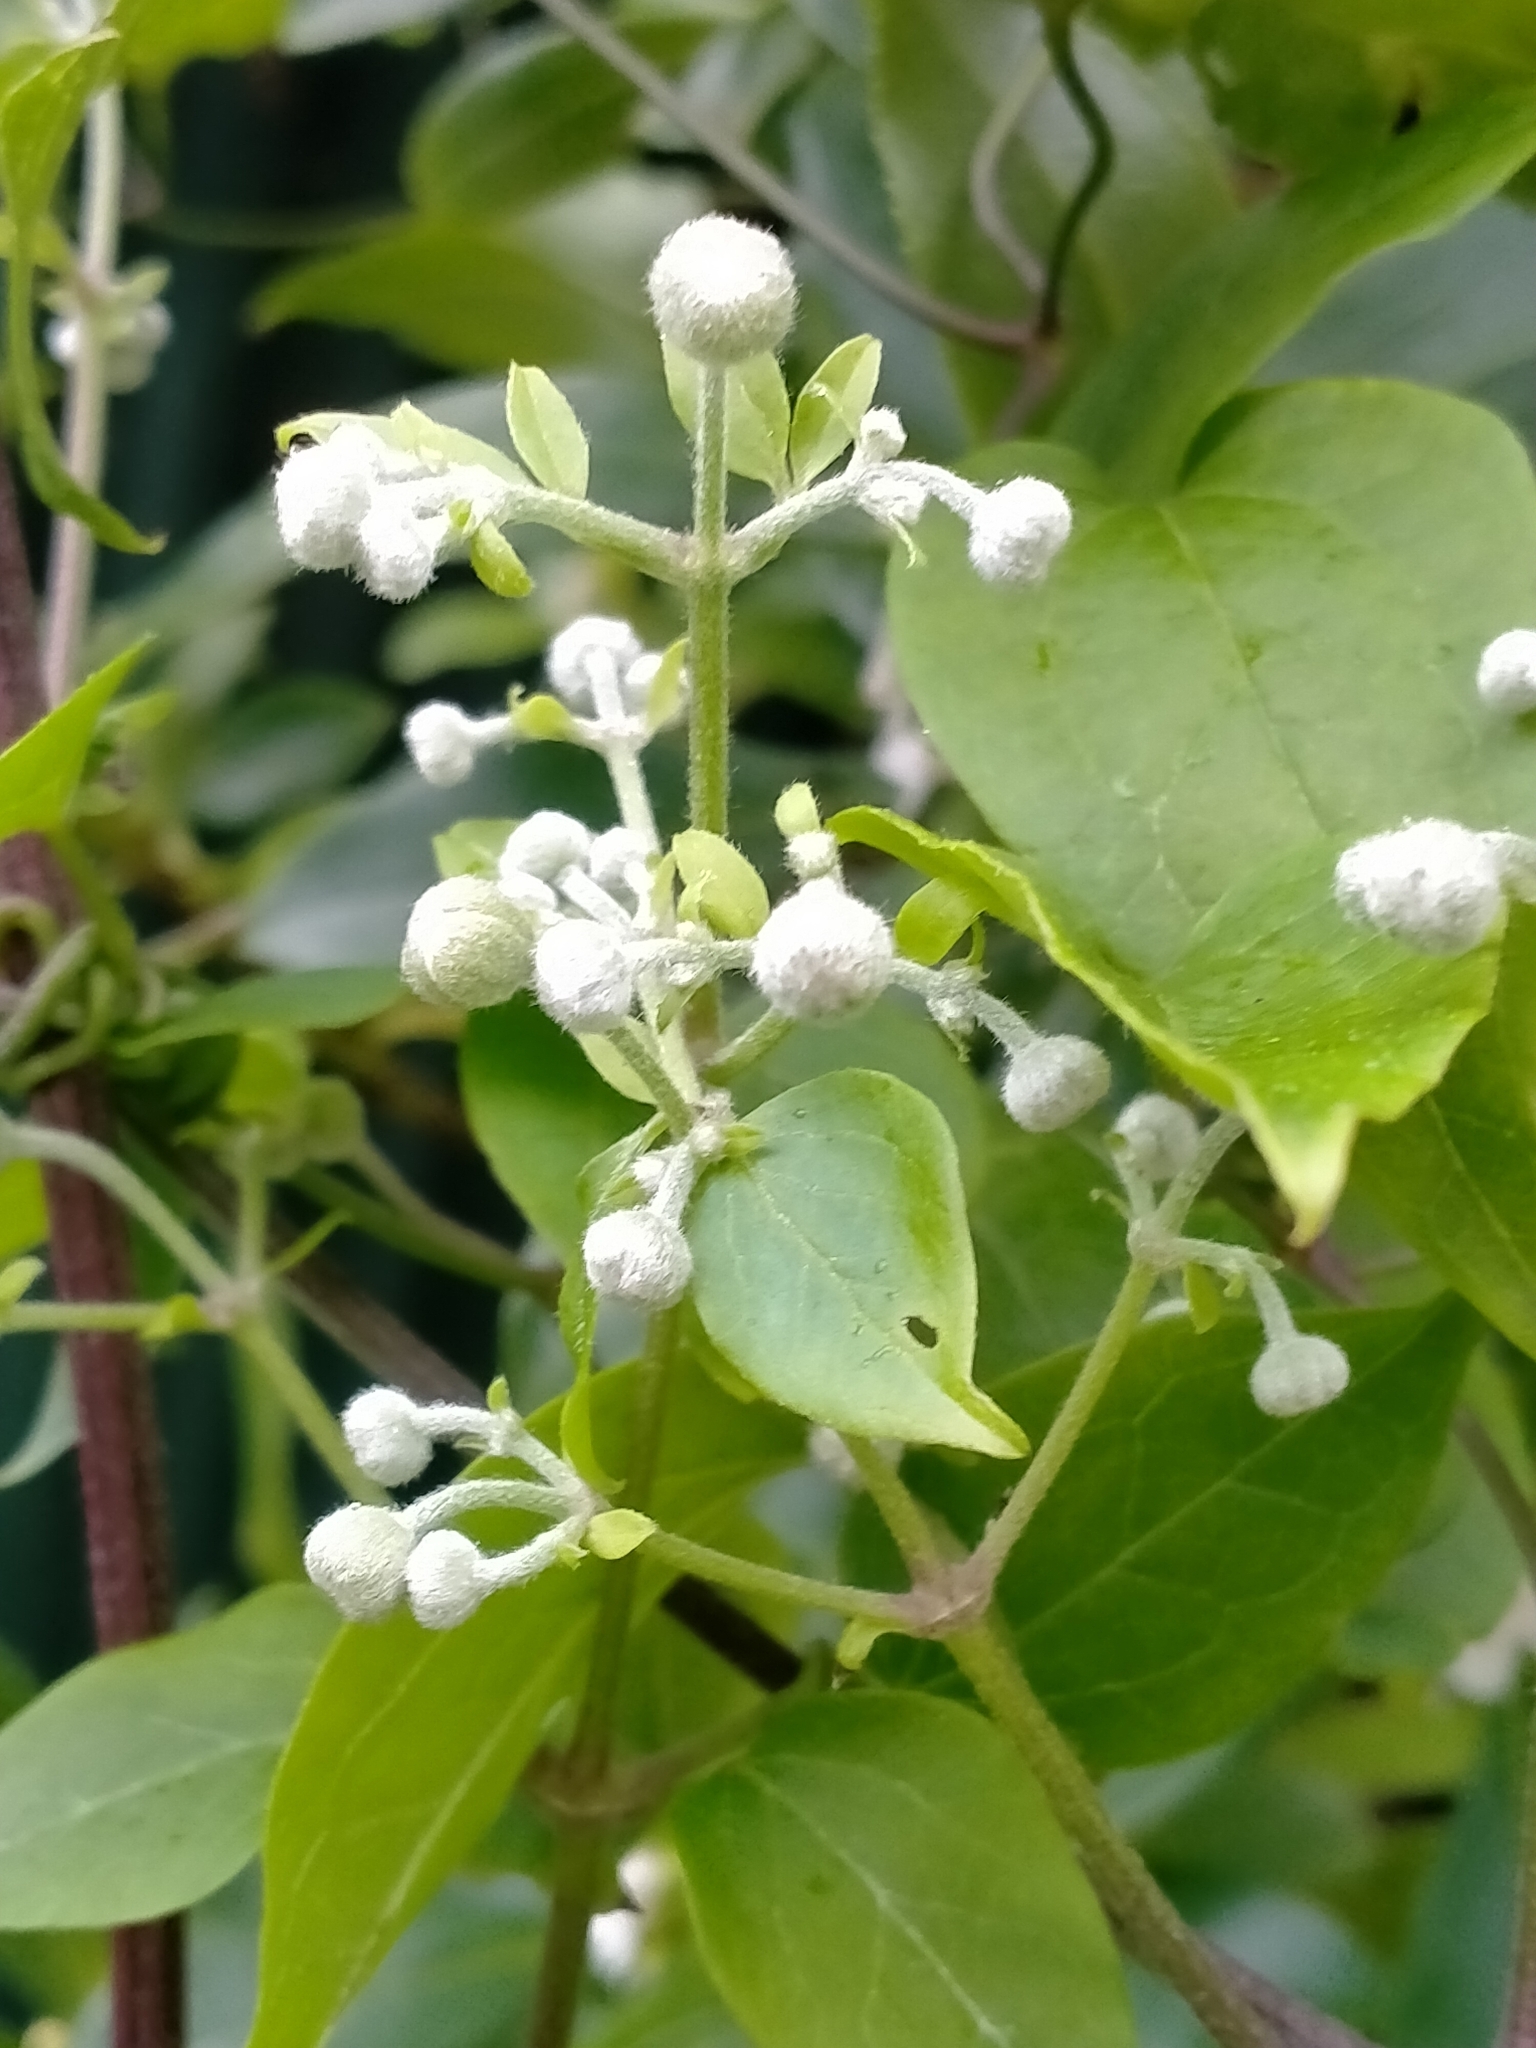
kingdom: Plantae
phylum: Tracheophyta
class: Magnoliopsida
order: Ranunculales
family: Ranunculaceae
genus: Clematis
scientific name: Clematis vitalba
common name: Evergreen clematis
